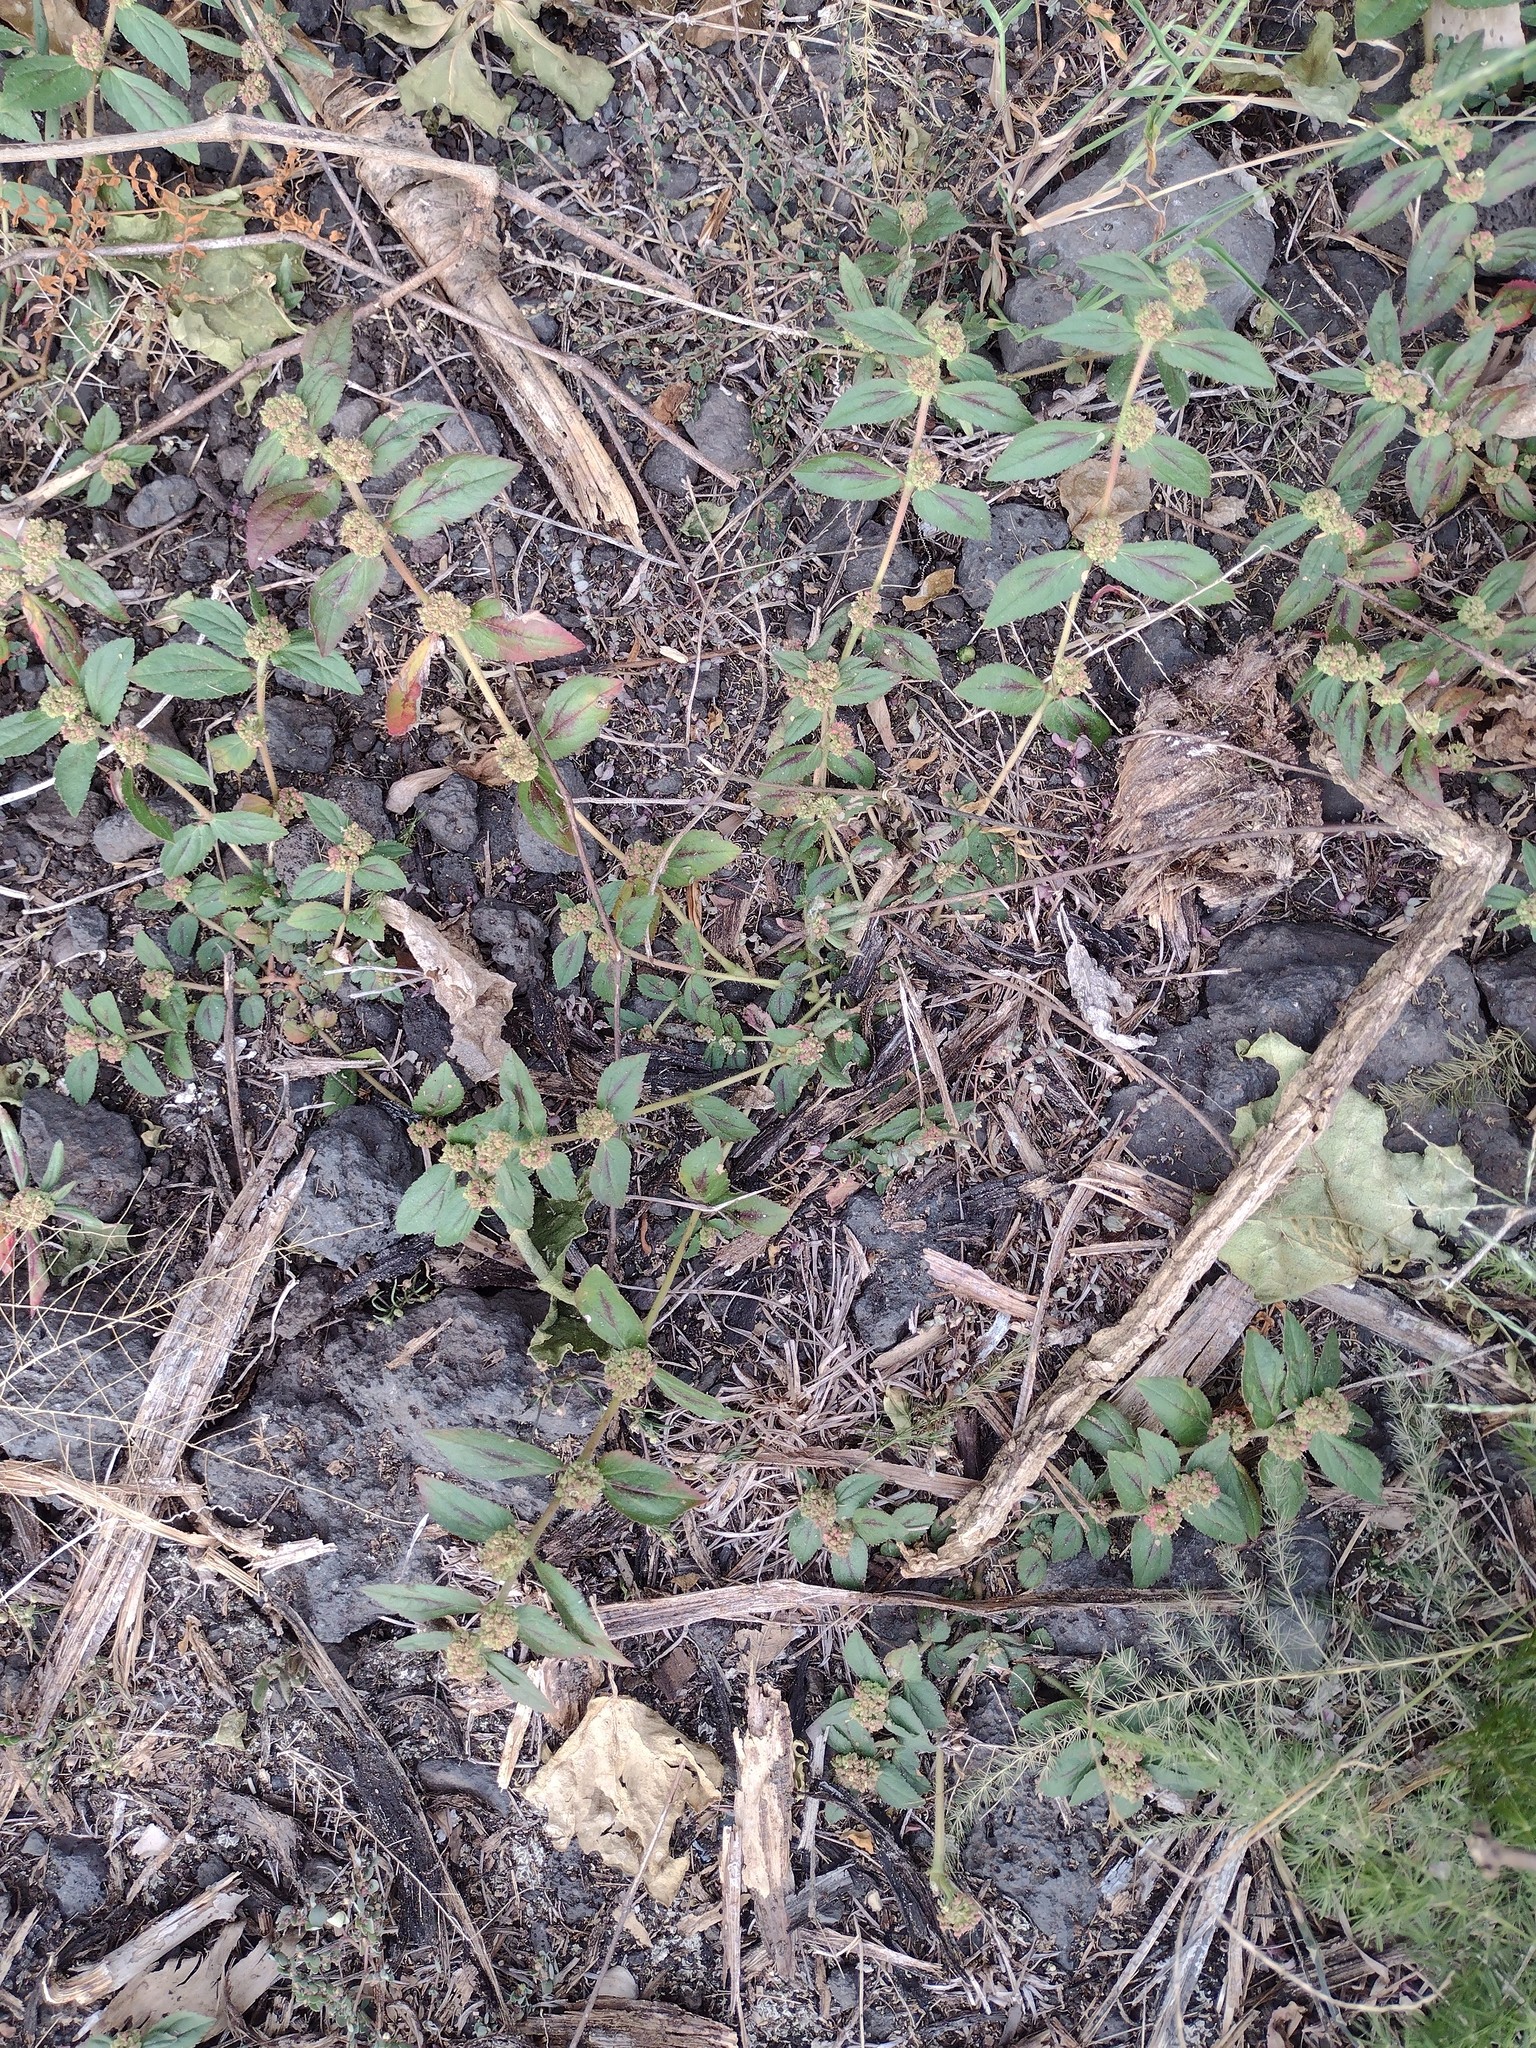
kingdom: Plantae
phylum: Tracheophyta
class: Magnoliopsida
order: Malpighiales
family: Euphorbiaceae
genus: Euphorbia
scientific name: Euphorbia hirta
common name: Pillpod sandmat
